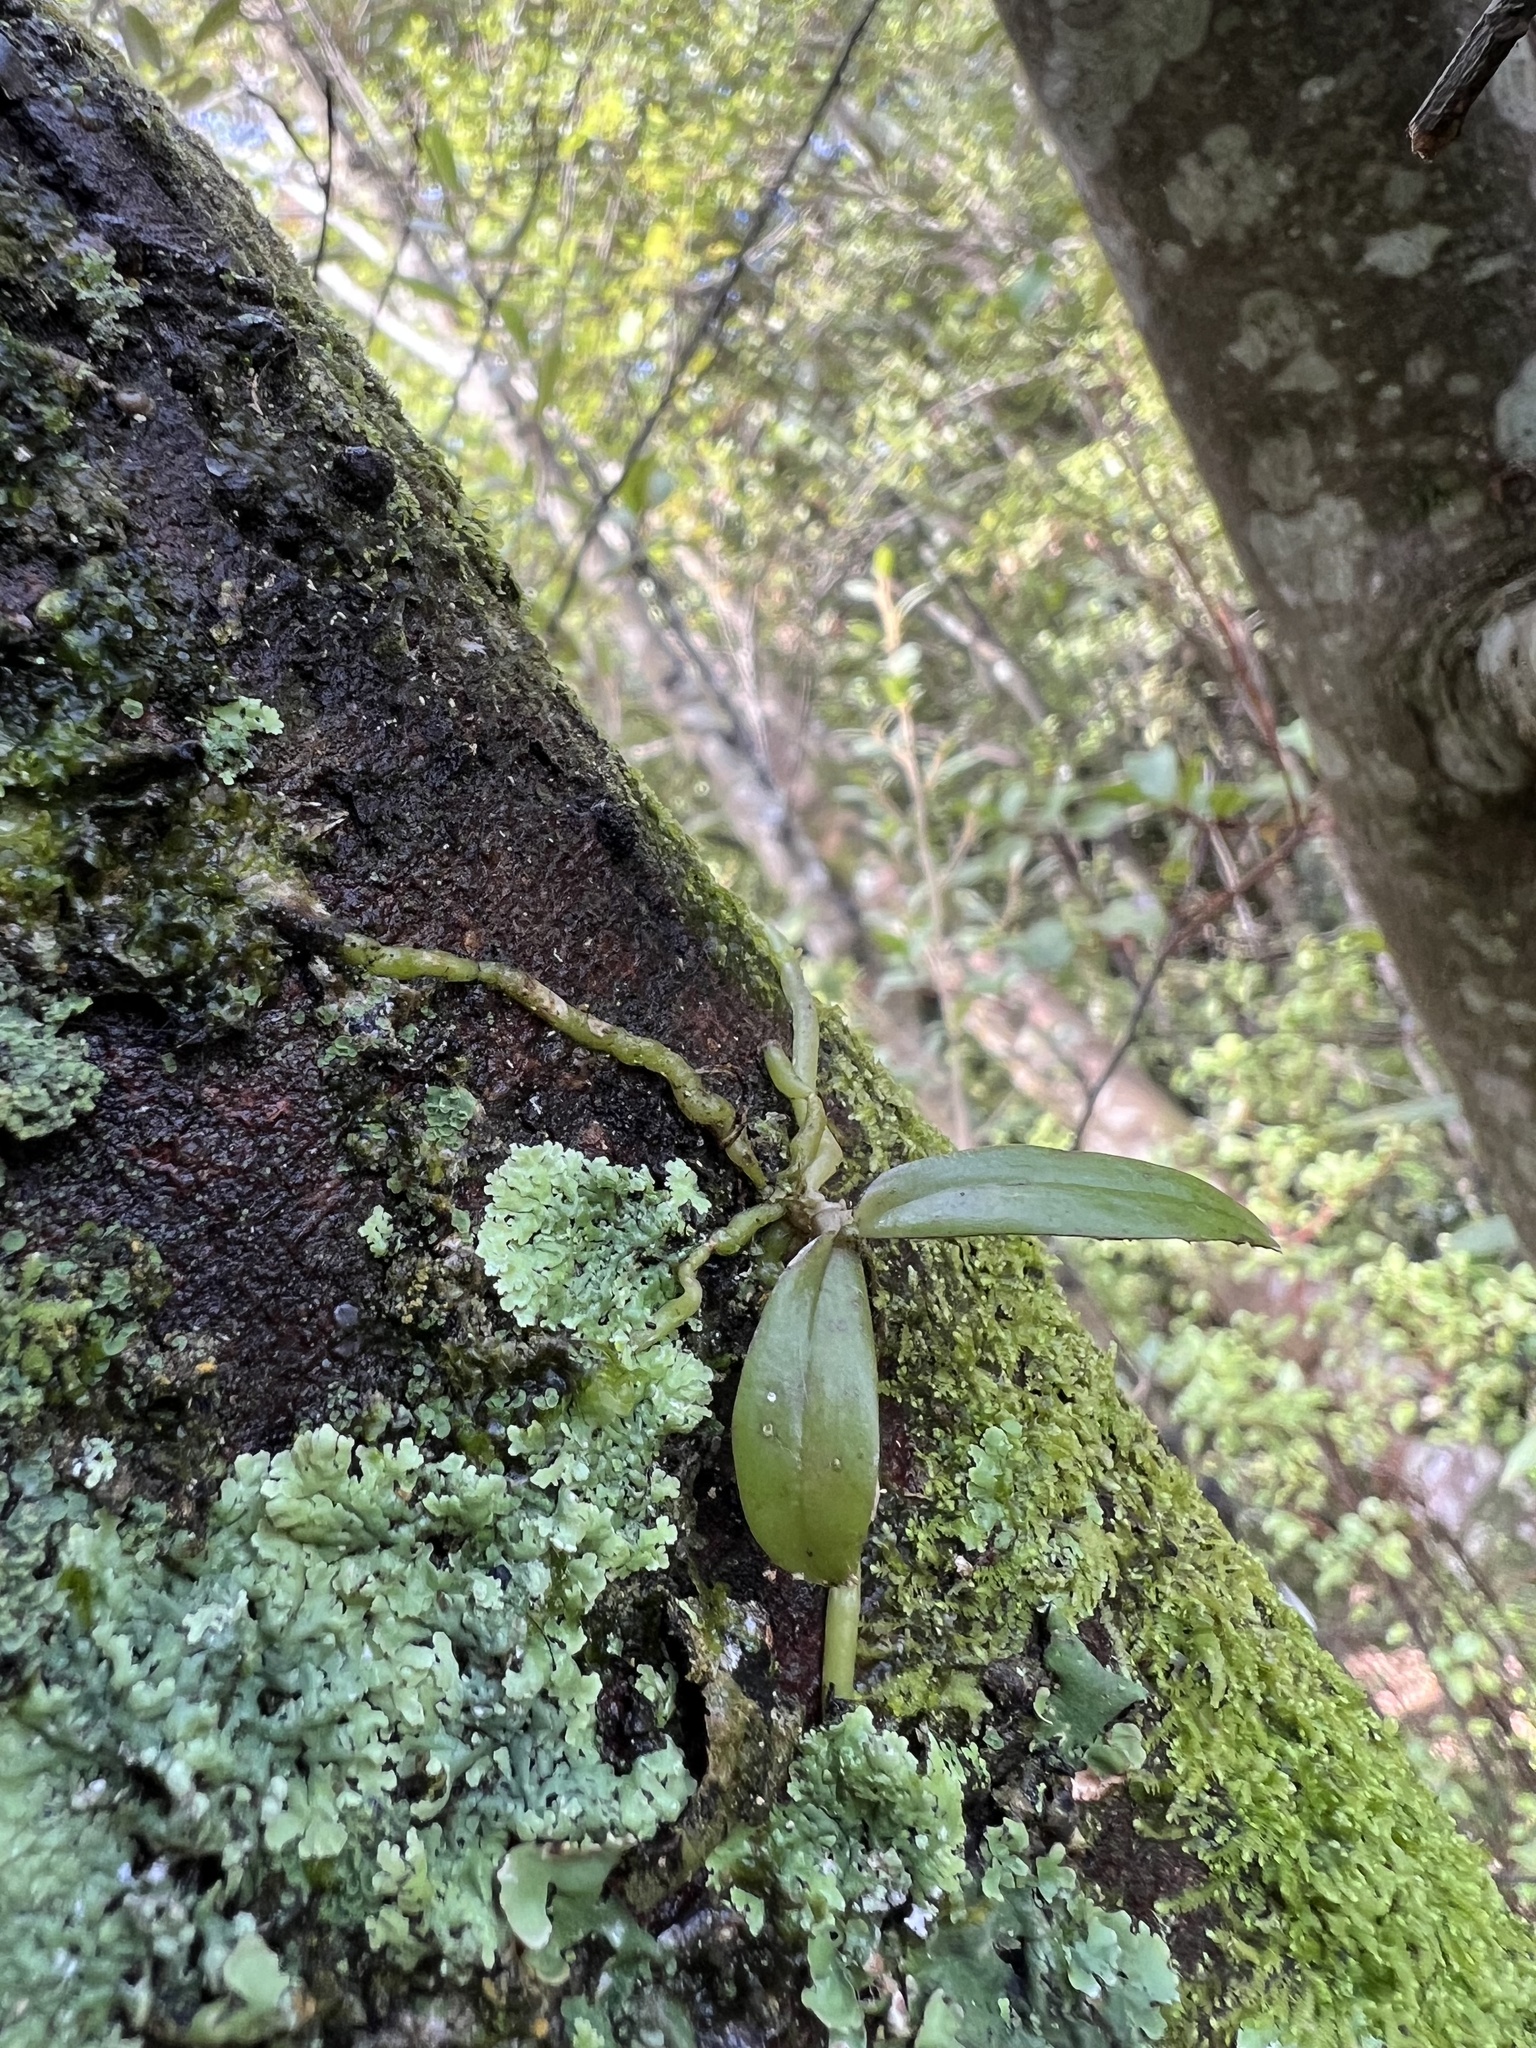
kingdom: Plantae
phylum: Tracheophyta
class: Liliopsida
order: Asparagales
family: Orchidaceae
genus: Drymoanthus
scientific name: Drymoanthus adversus
